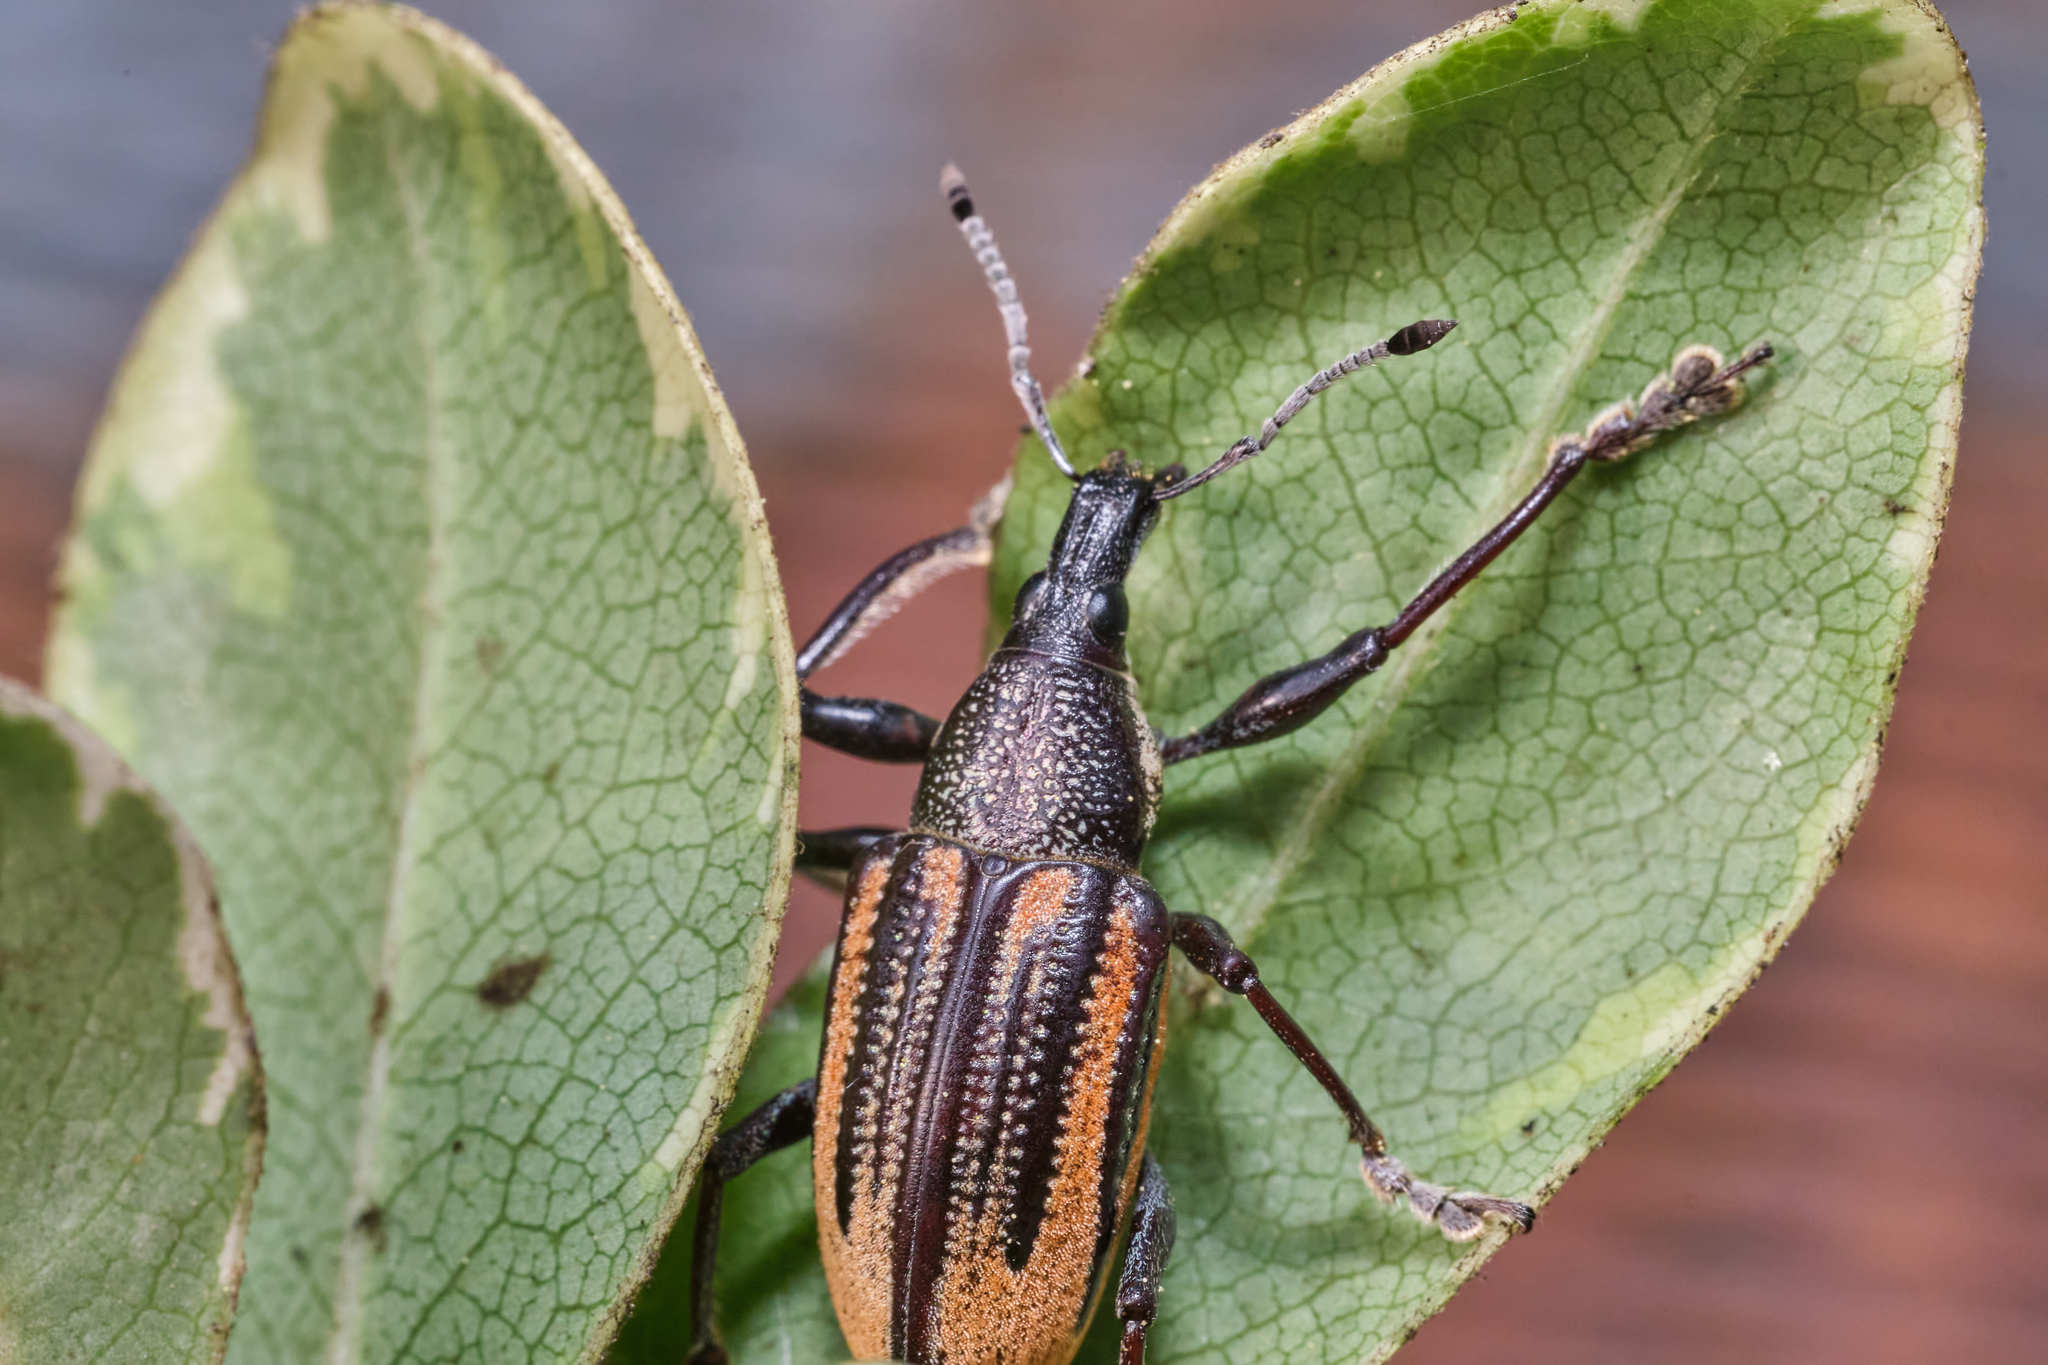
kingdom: Animalia
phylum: Arthropoda
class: Insecta
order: Coleoptera
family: Curculionidae
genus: Diaprepes
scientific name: Diaprepes abbreviatus
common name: Root weevil
